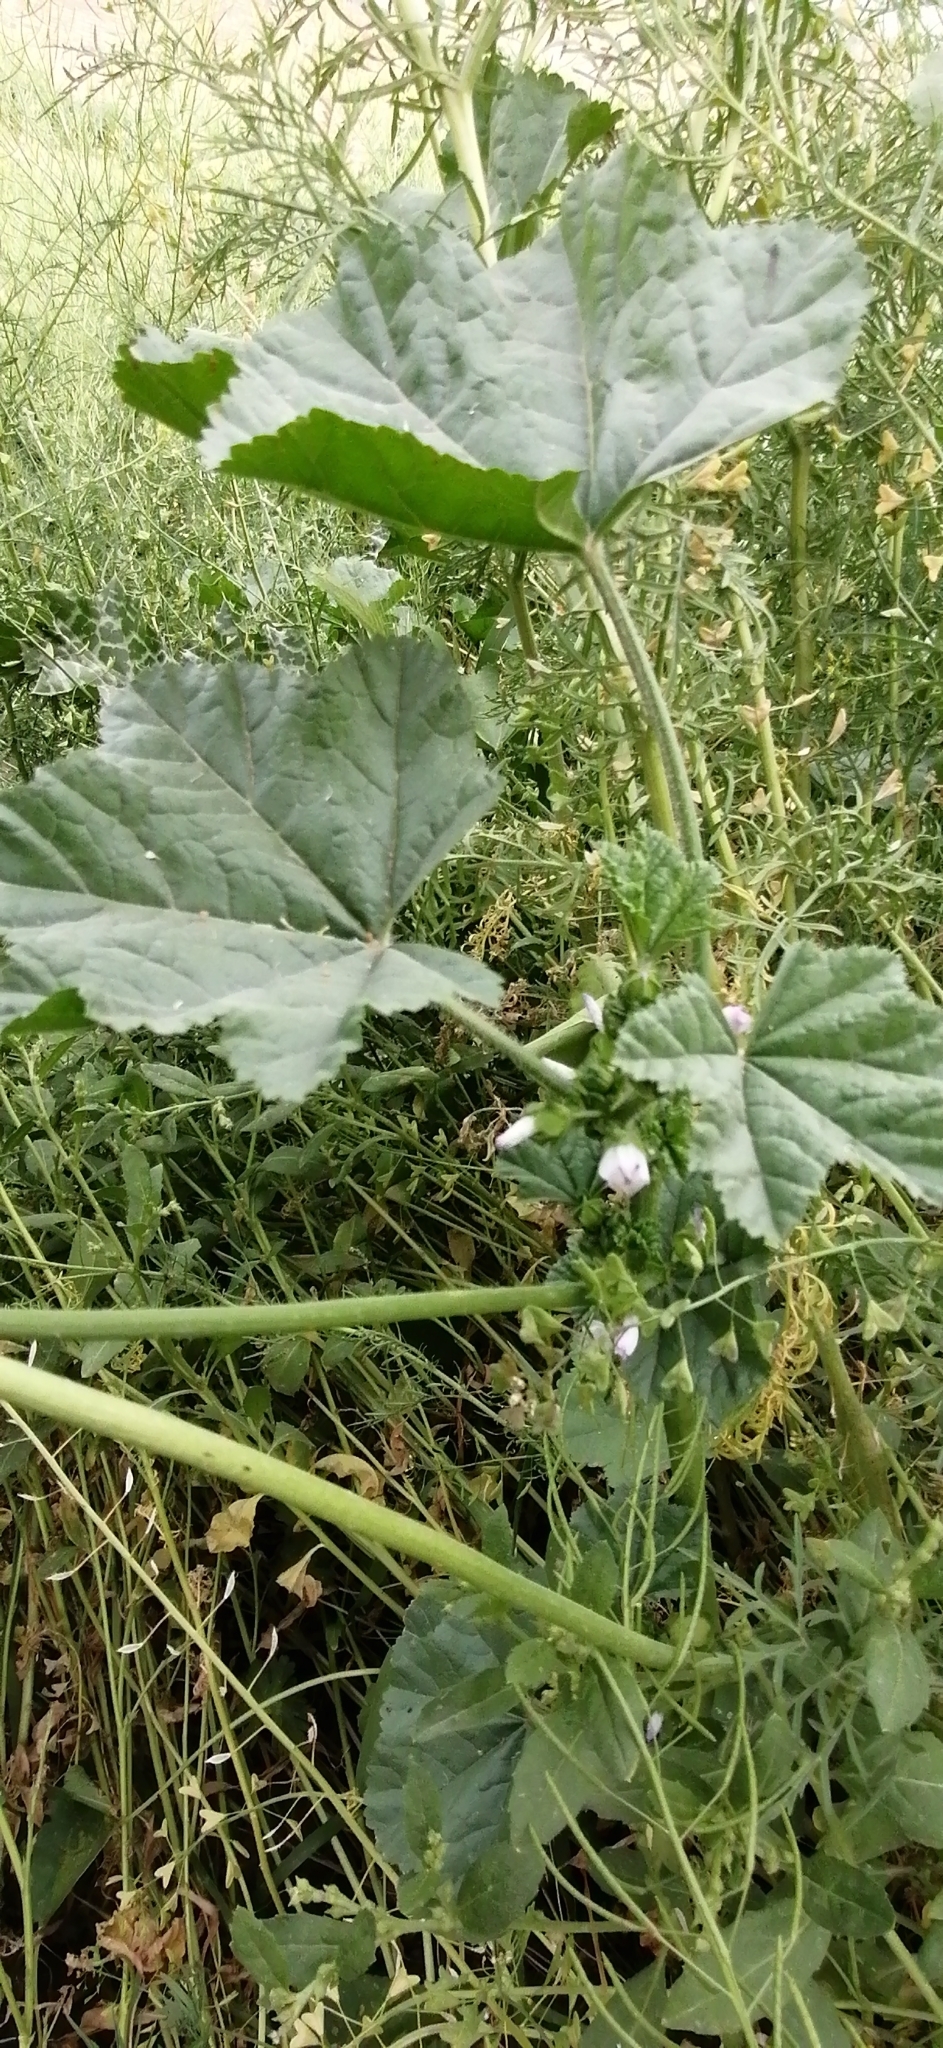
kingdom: Plantae
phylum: Tracheophyta
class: Magnoliopsida
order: Malvales
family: Malvaceae
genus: Malva
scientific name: Malva pusilla
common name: Small mallow
